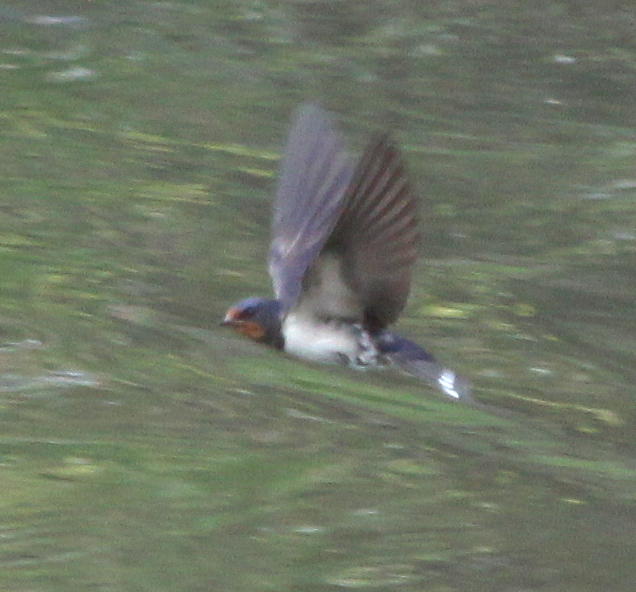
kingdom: Animalia
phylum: Chordata
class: Aves
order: Passeriformes
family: Hirundinidae
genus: Hirundo
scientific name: Hirundo rustica
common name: Barn swallow
